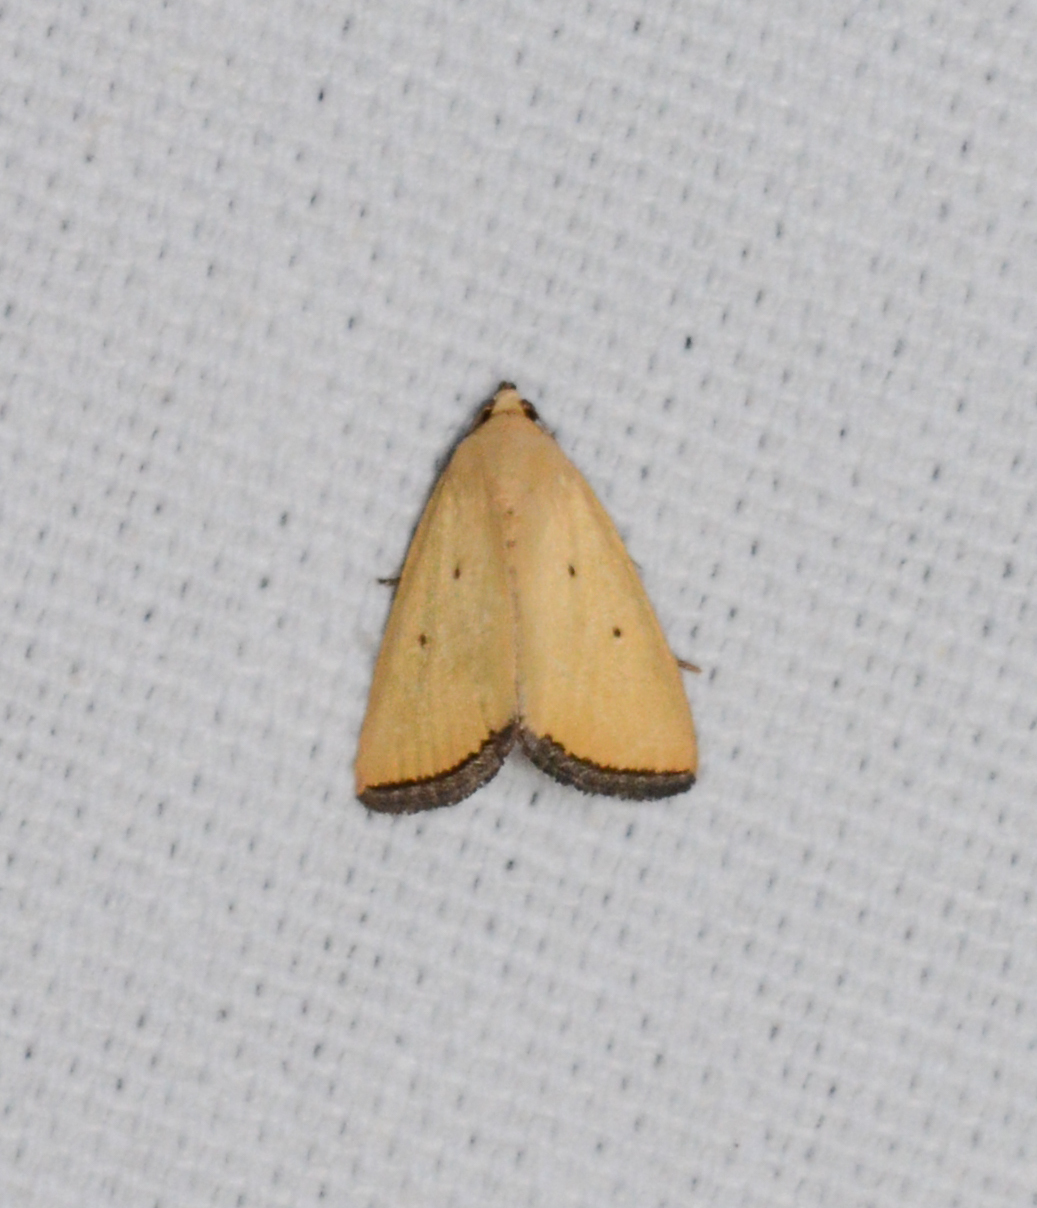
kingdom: Animalia
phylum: Arthropoda
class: Insecta
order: Lepidoptera
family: Noctuidae
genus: Marimatha
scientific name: Marimatha nigrofimbria
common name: Black-bordered lemon moth
